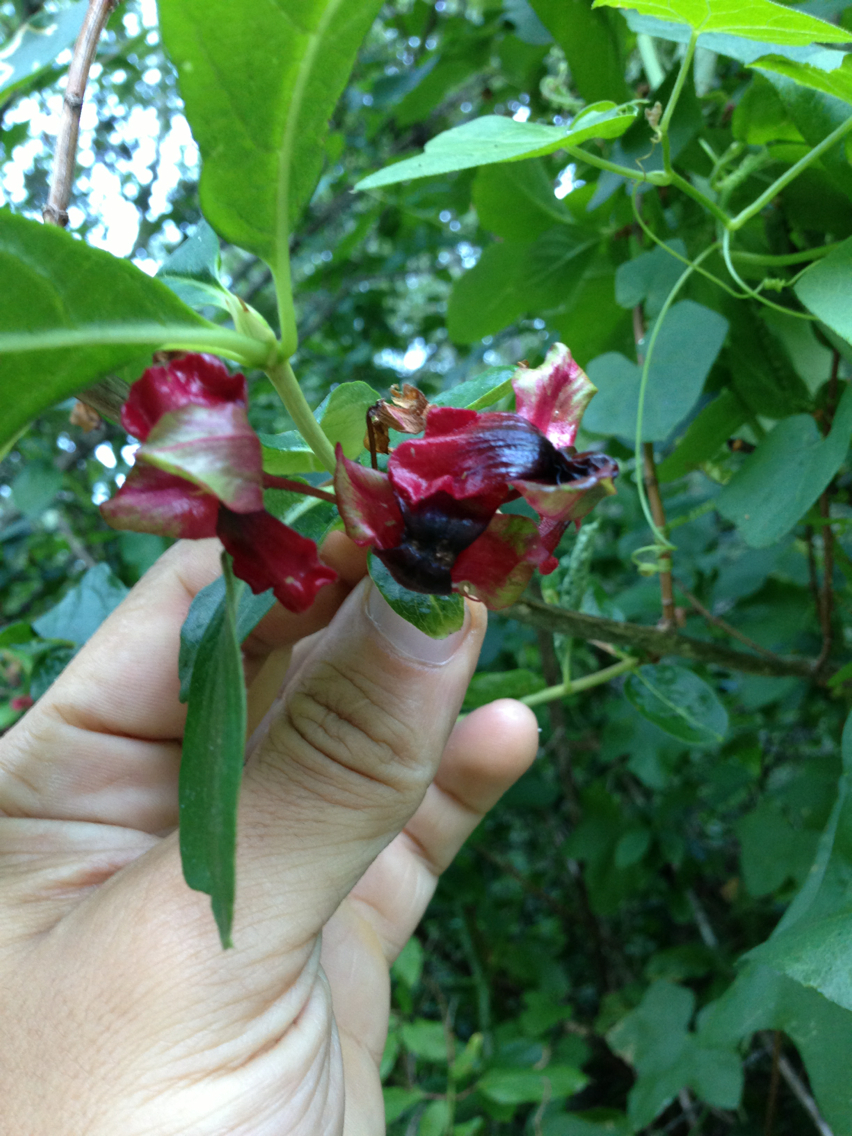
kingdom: Plantae
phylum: Tracheophyta
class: Magnoliopsida
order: Dipsacales
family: Caprifoliaceae
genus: Lonicera
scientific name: Lonicera involucrata
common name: Californian honeysuckle
